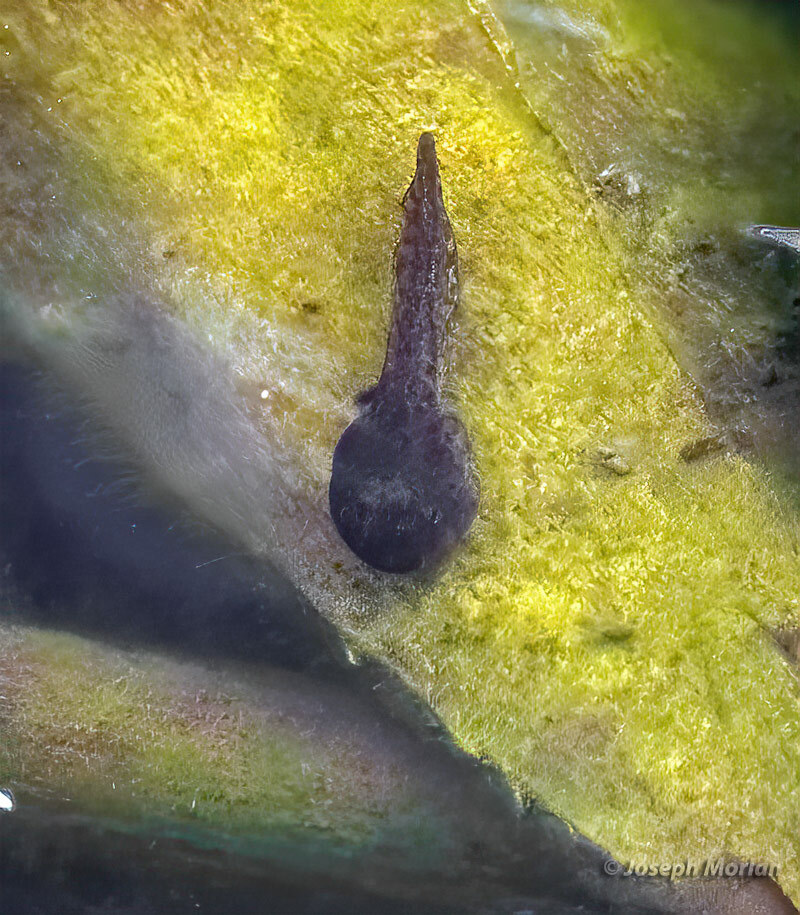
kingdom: Animalia
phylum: Chordata
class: Amphibia
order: Anura
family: Ranidae
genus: Rana
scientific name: Rana draytonii
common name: California red-legged frog
